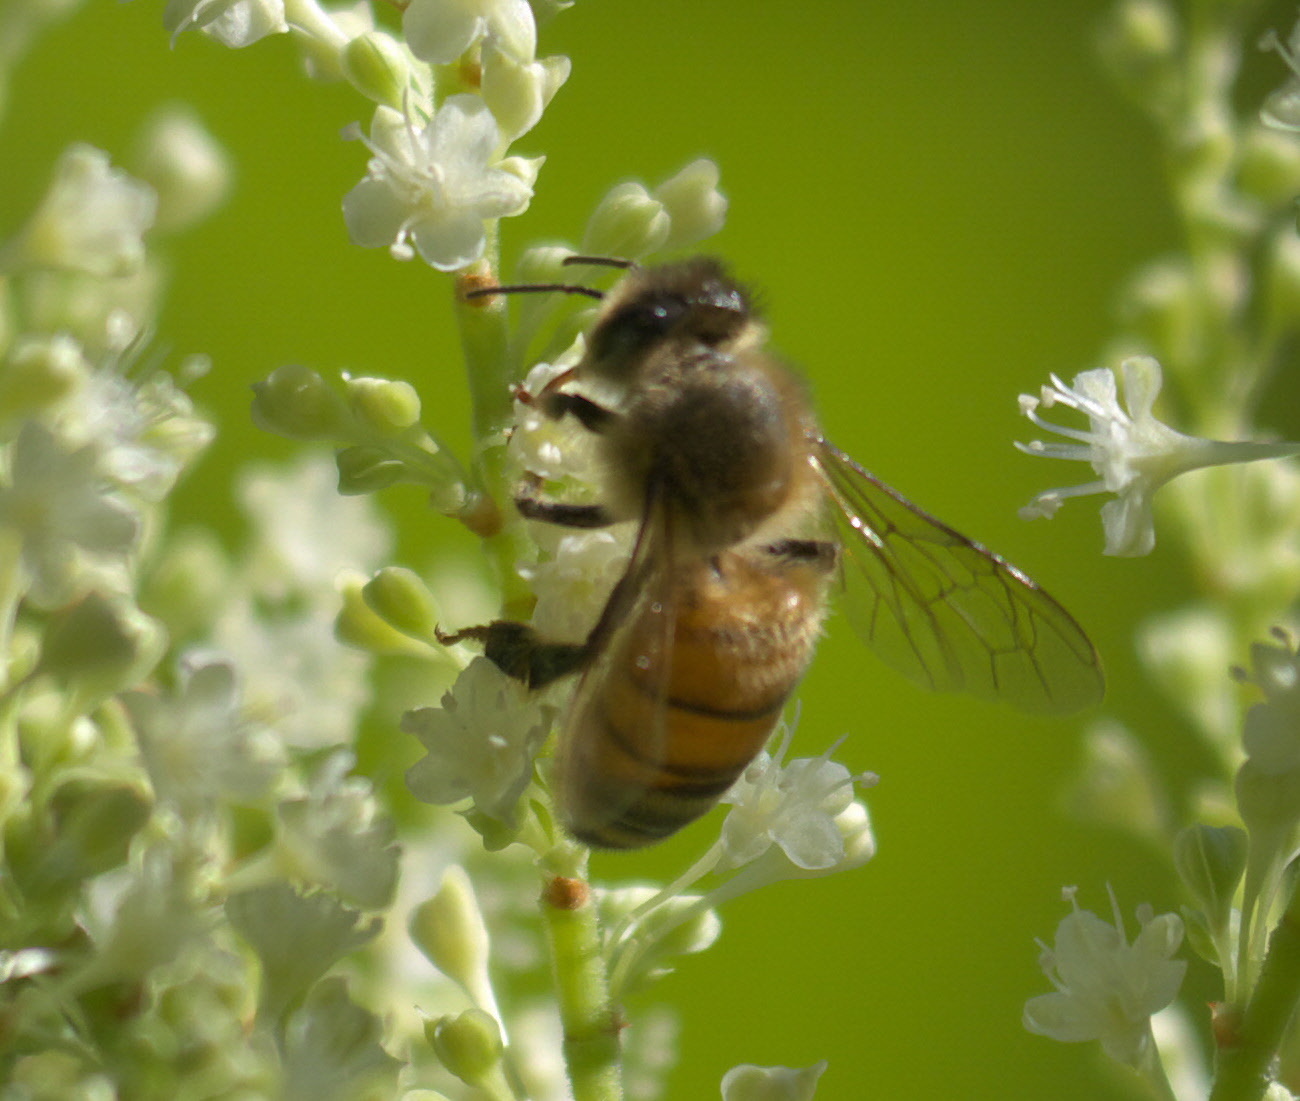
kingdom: Animalia
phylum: Arthropoda
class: Insecta
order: Hymenoptera
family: Apidae
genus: Apis
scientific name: Apis mellifera
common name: Honey bee
